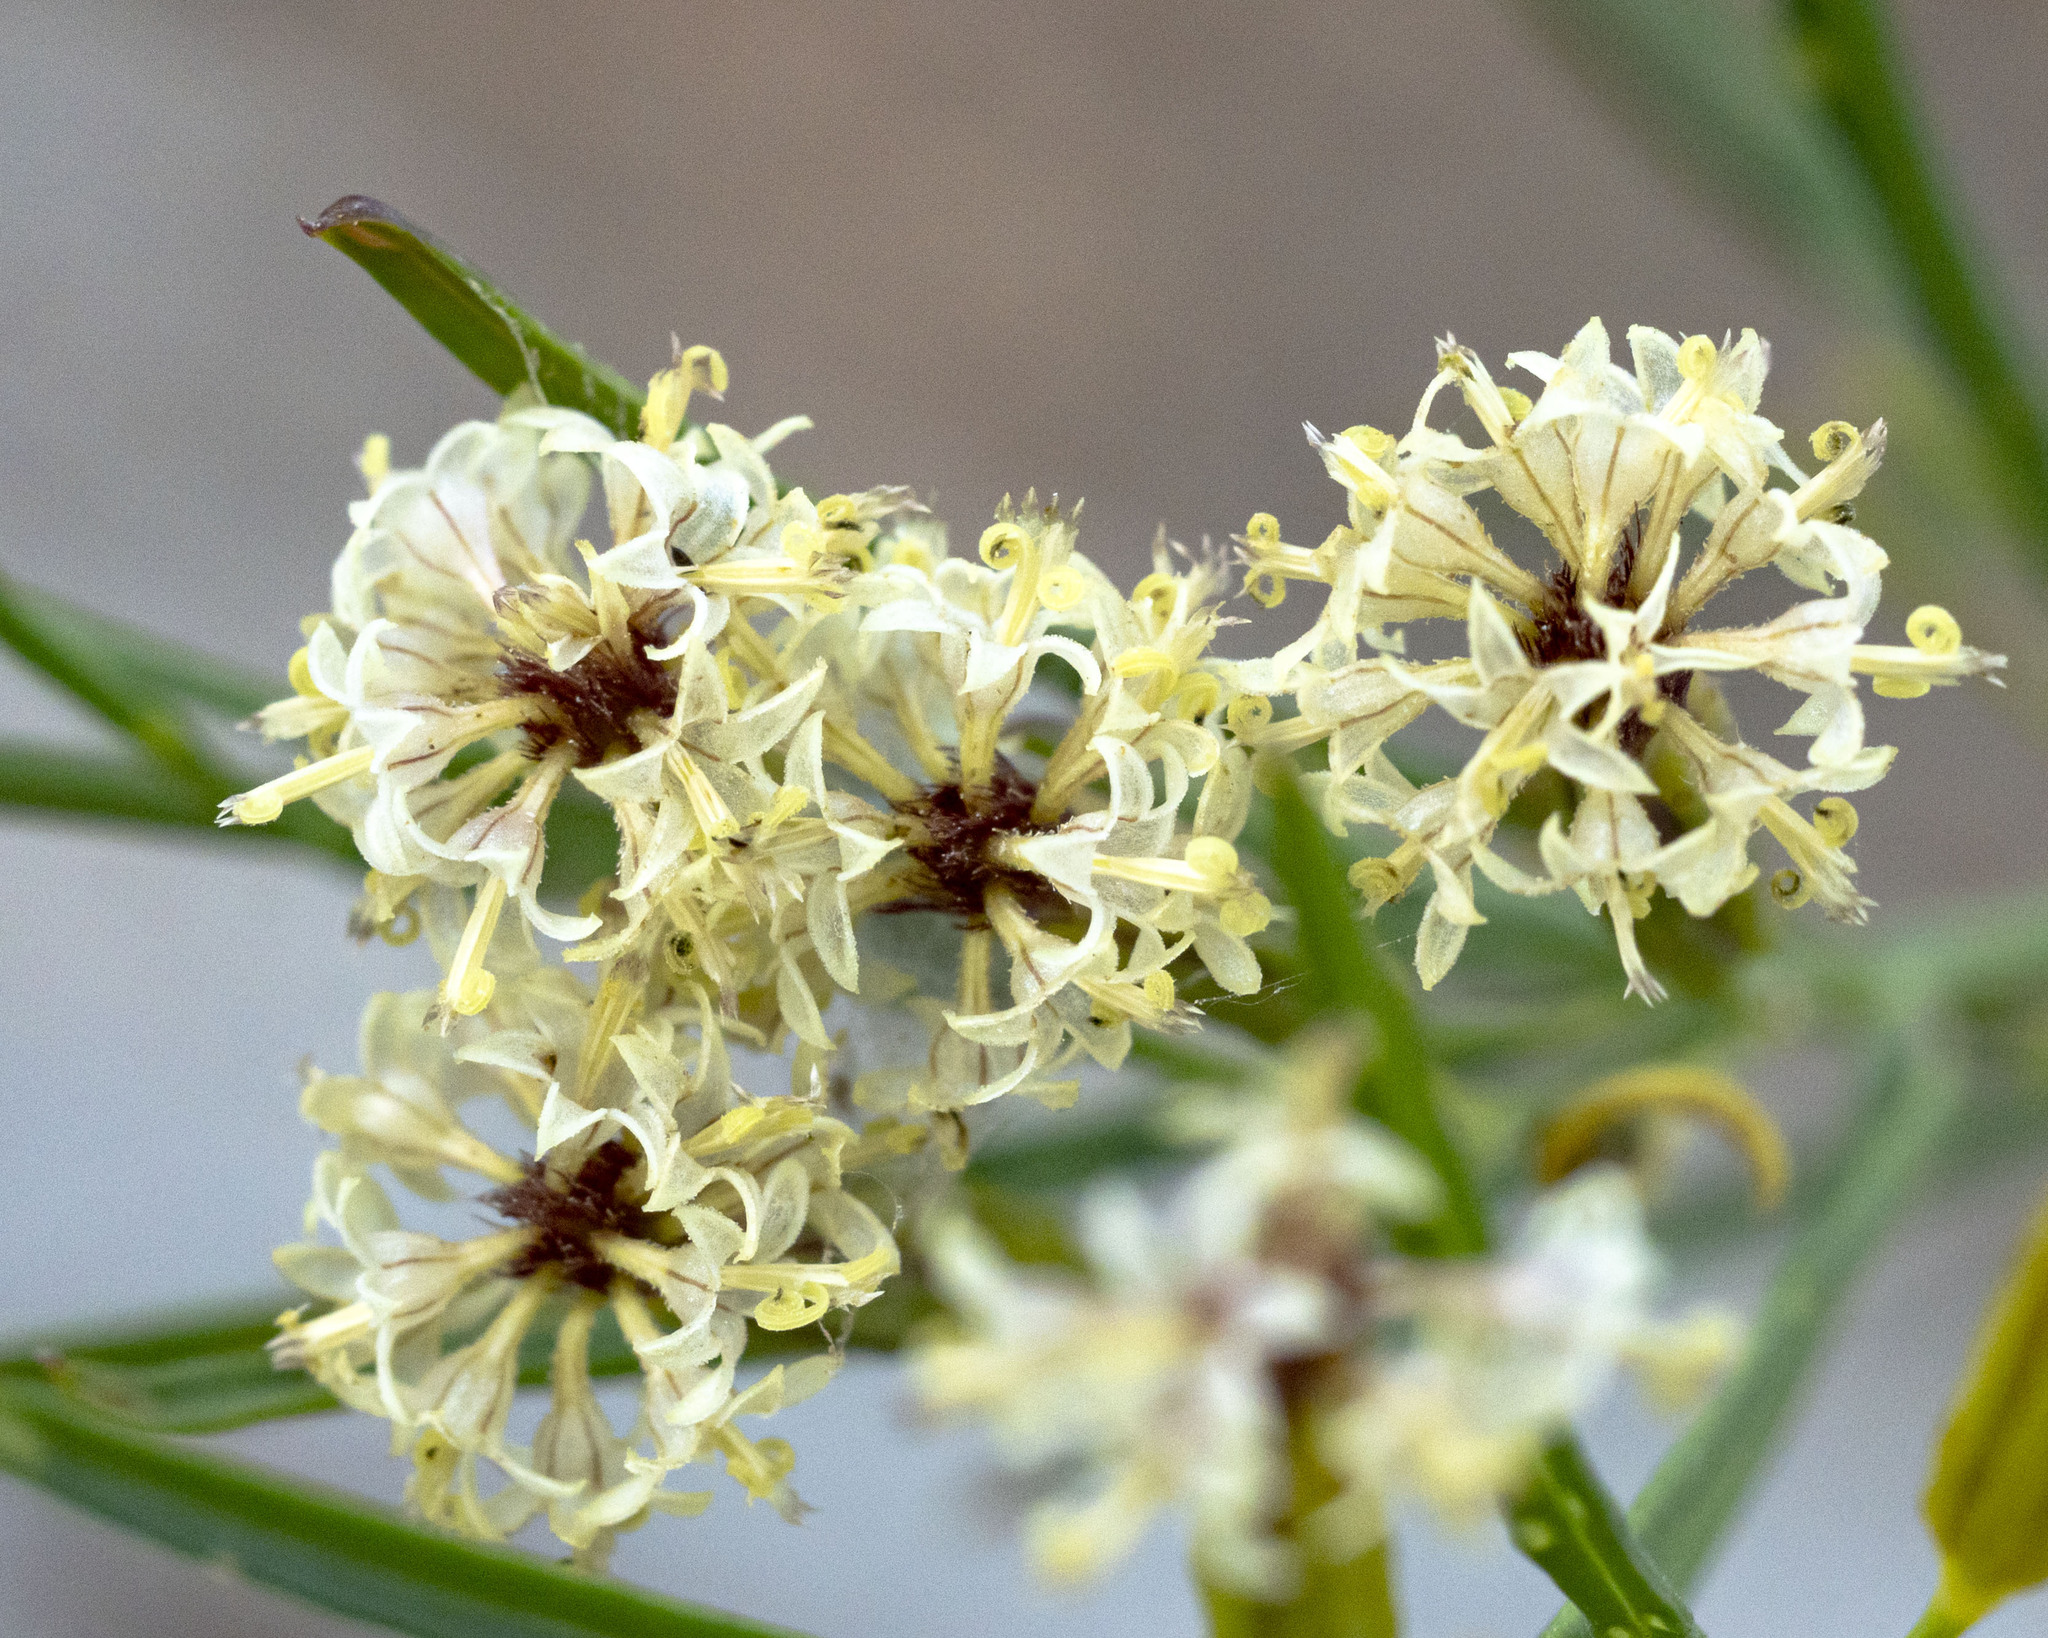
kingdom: Plantae
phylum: Tracheophyta
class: Magnoliopsida
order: Asterales
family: Asteraceae
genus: Porophyllum
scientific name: Porophyllum gracile
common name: Odora
